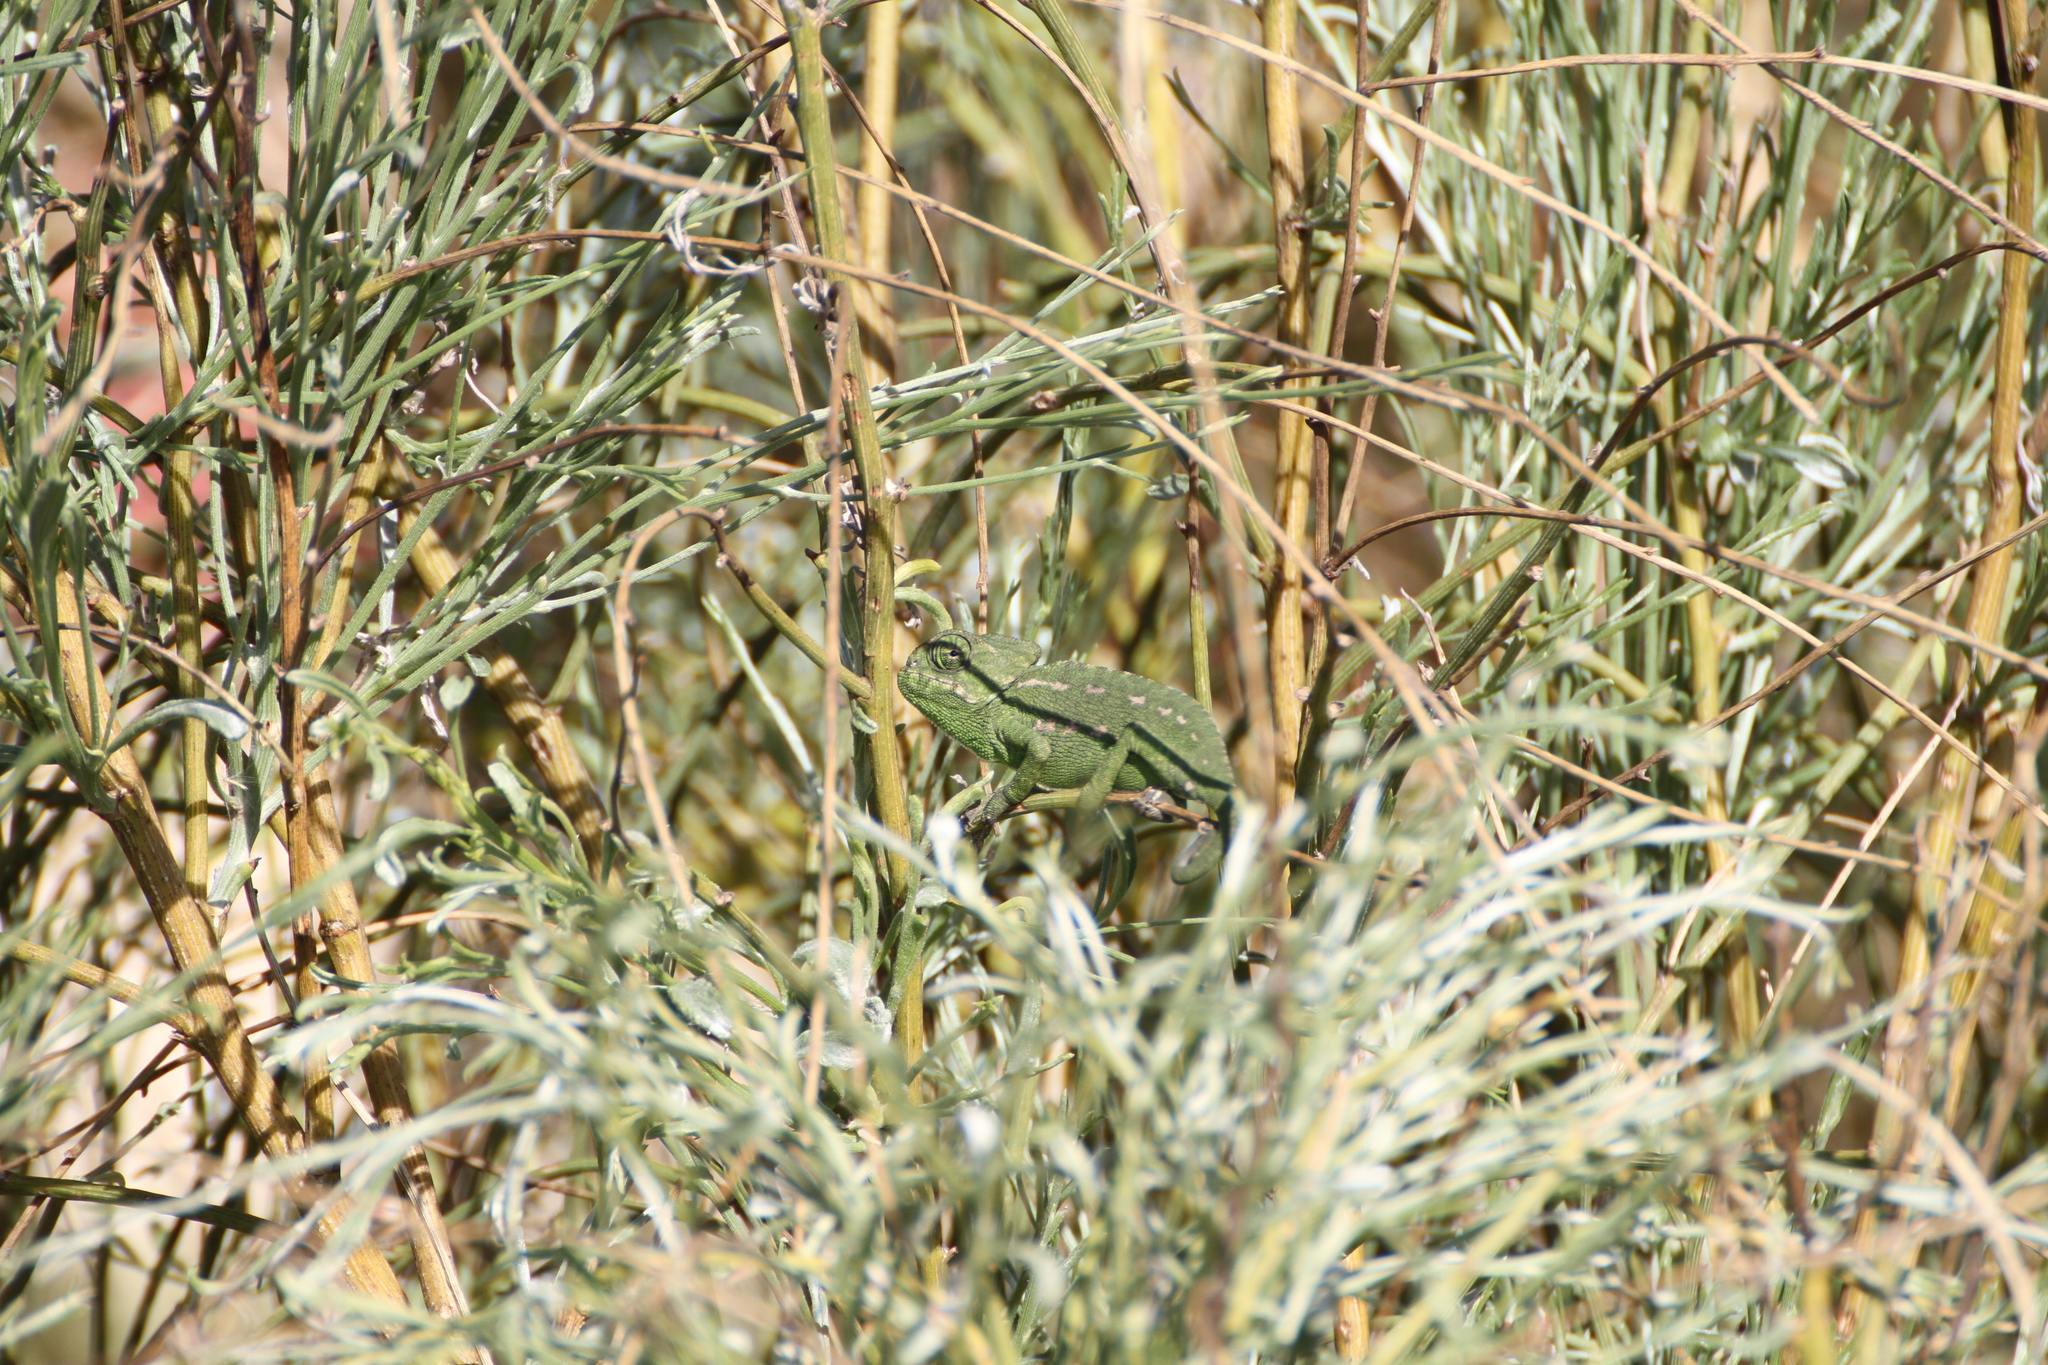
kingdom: Animalia
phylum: Chordata
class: Squamata
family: Chamaeleonidae
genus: Chamaeleo
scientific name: Chamaeleo chamaeleon
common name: Mediterranean chameleon
